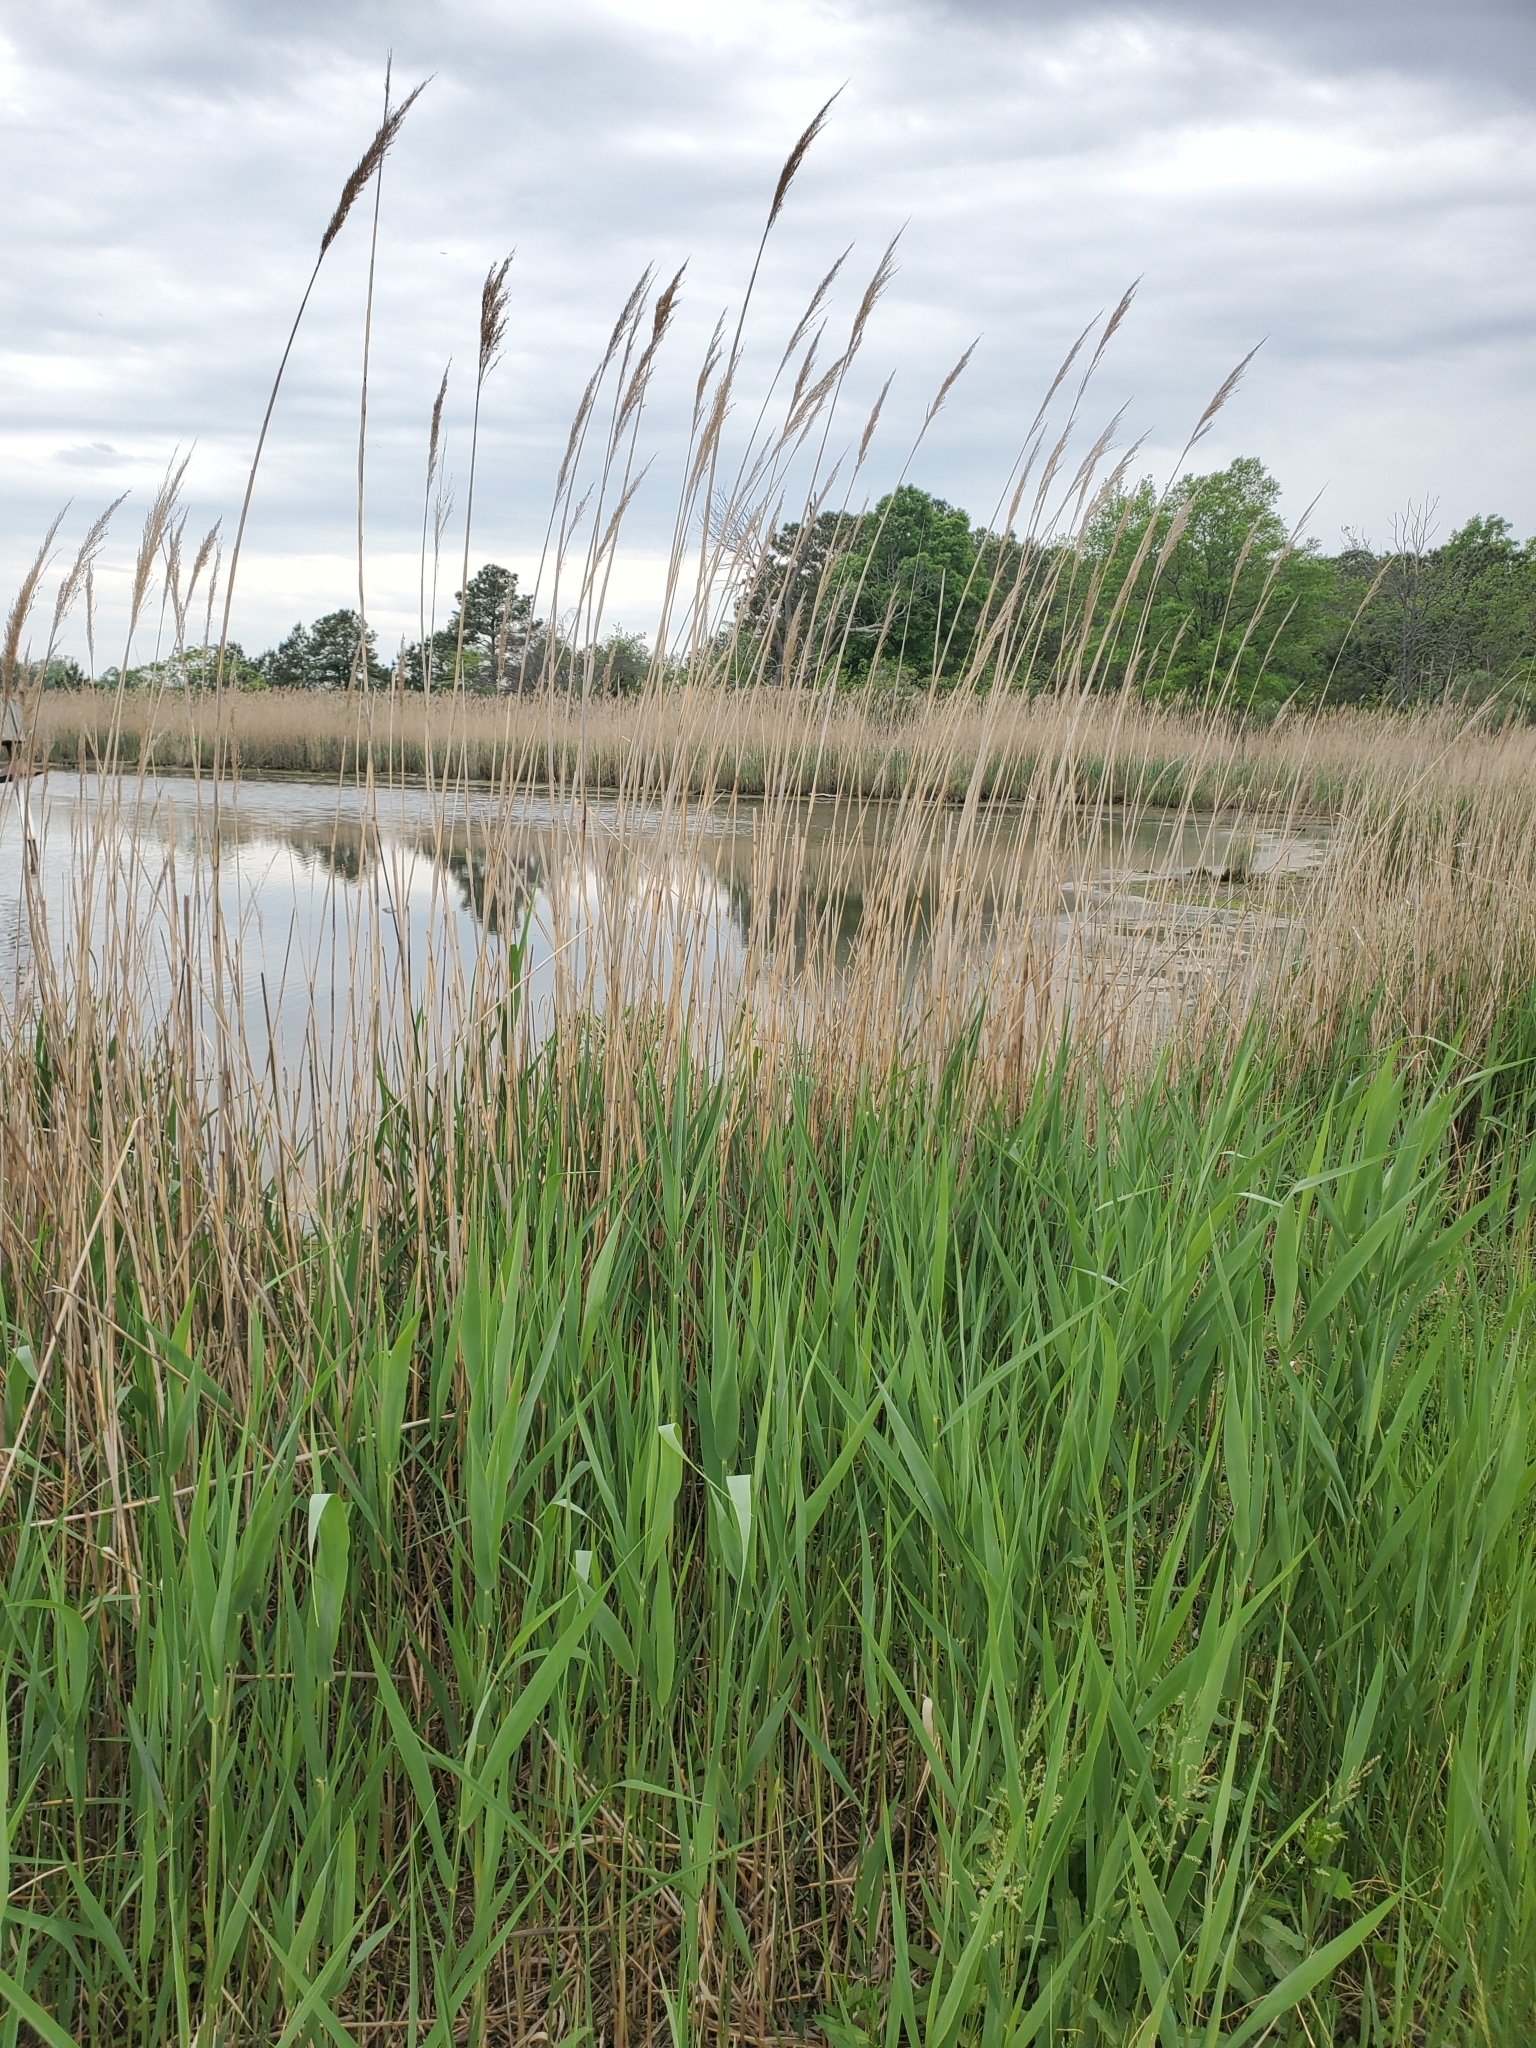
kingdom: Plantae
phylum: Tracheophyta
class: Liliopsida
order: Poales
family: Poaceae
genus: Phragmites
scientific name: Phragmites australis
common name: Common reed
